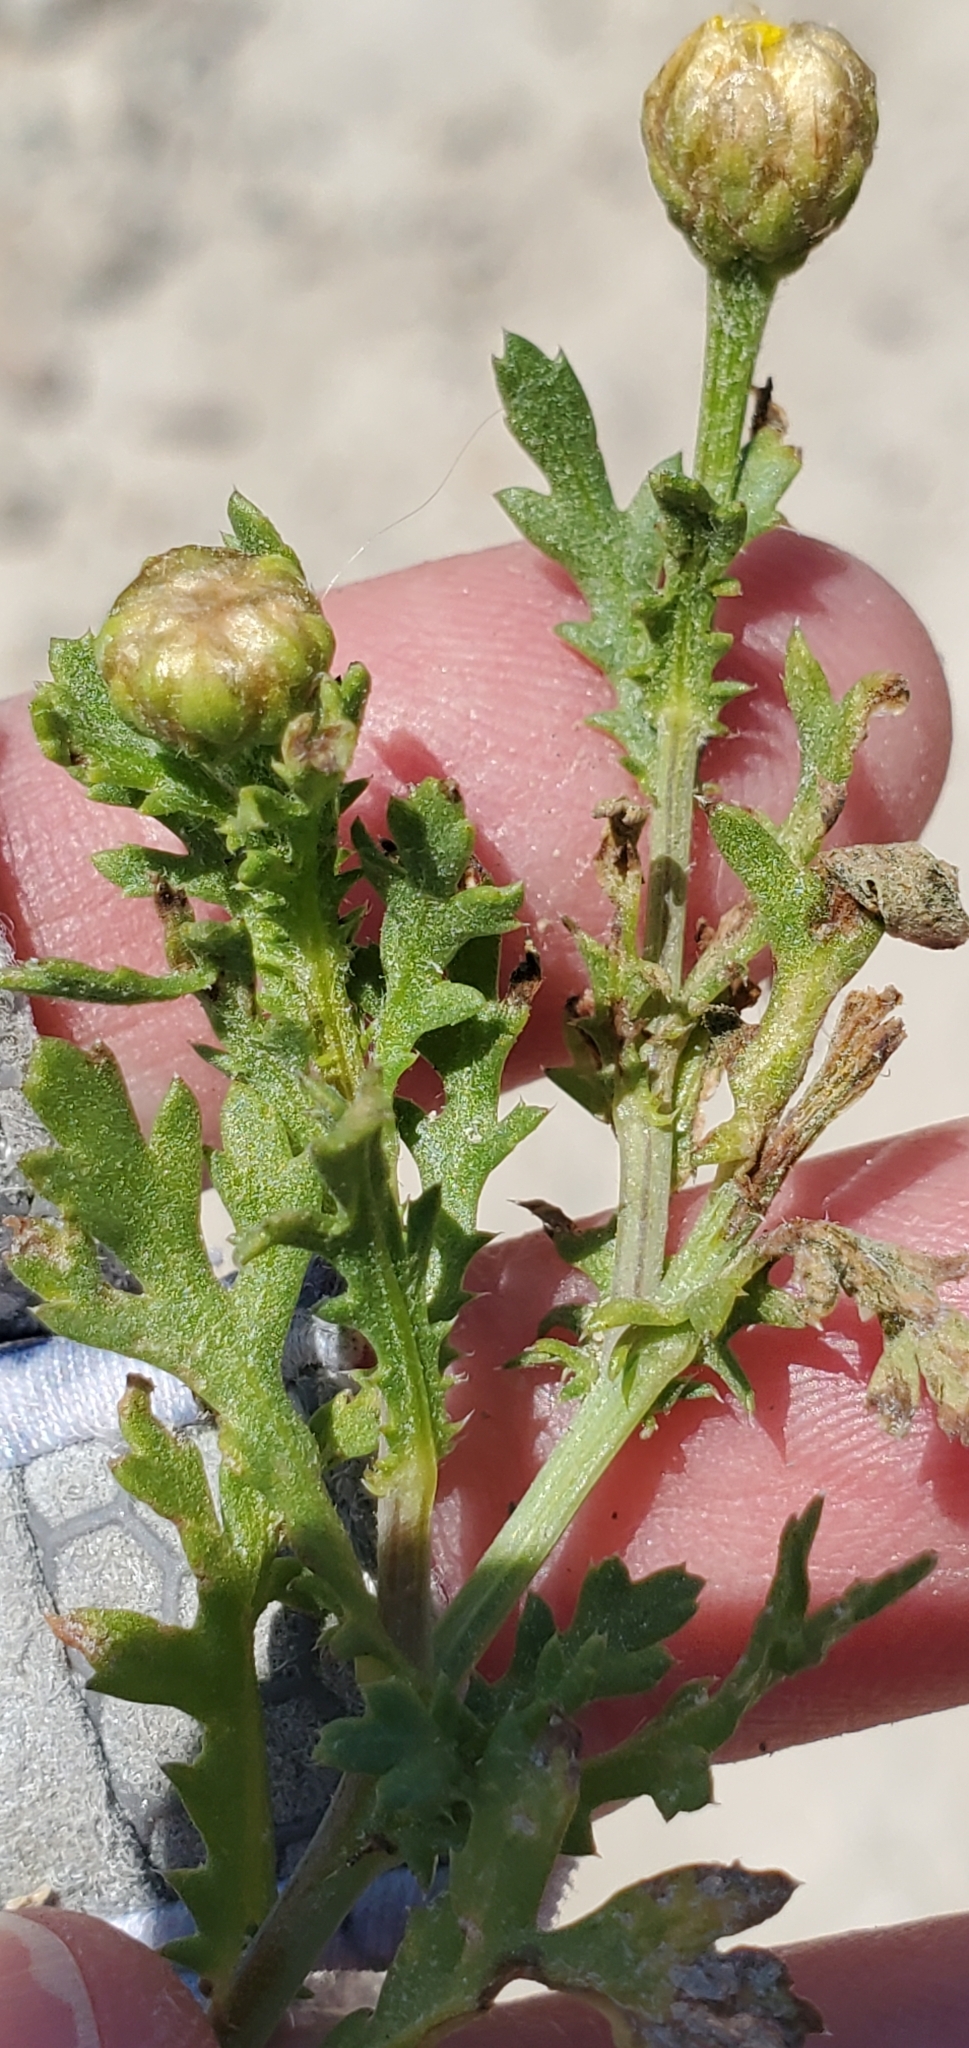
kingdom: Plantae
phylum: Tracheophyta
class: Magnoliopsida
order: Asterales
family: Asteraceae
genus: Glebionis
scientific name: Glebionis coronaria
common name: Crowndaisy
